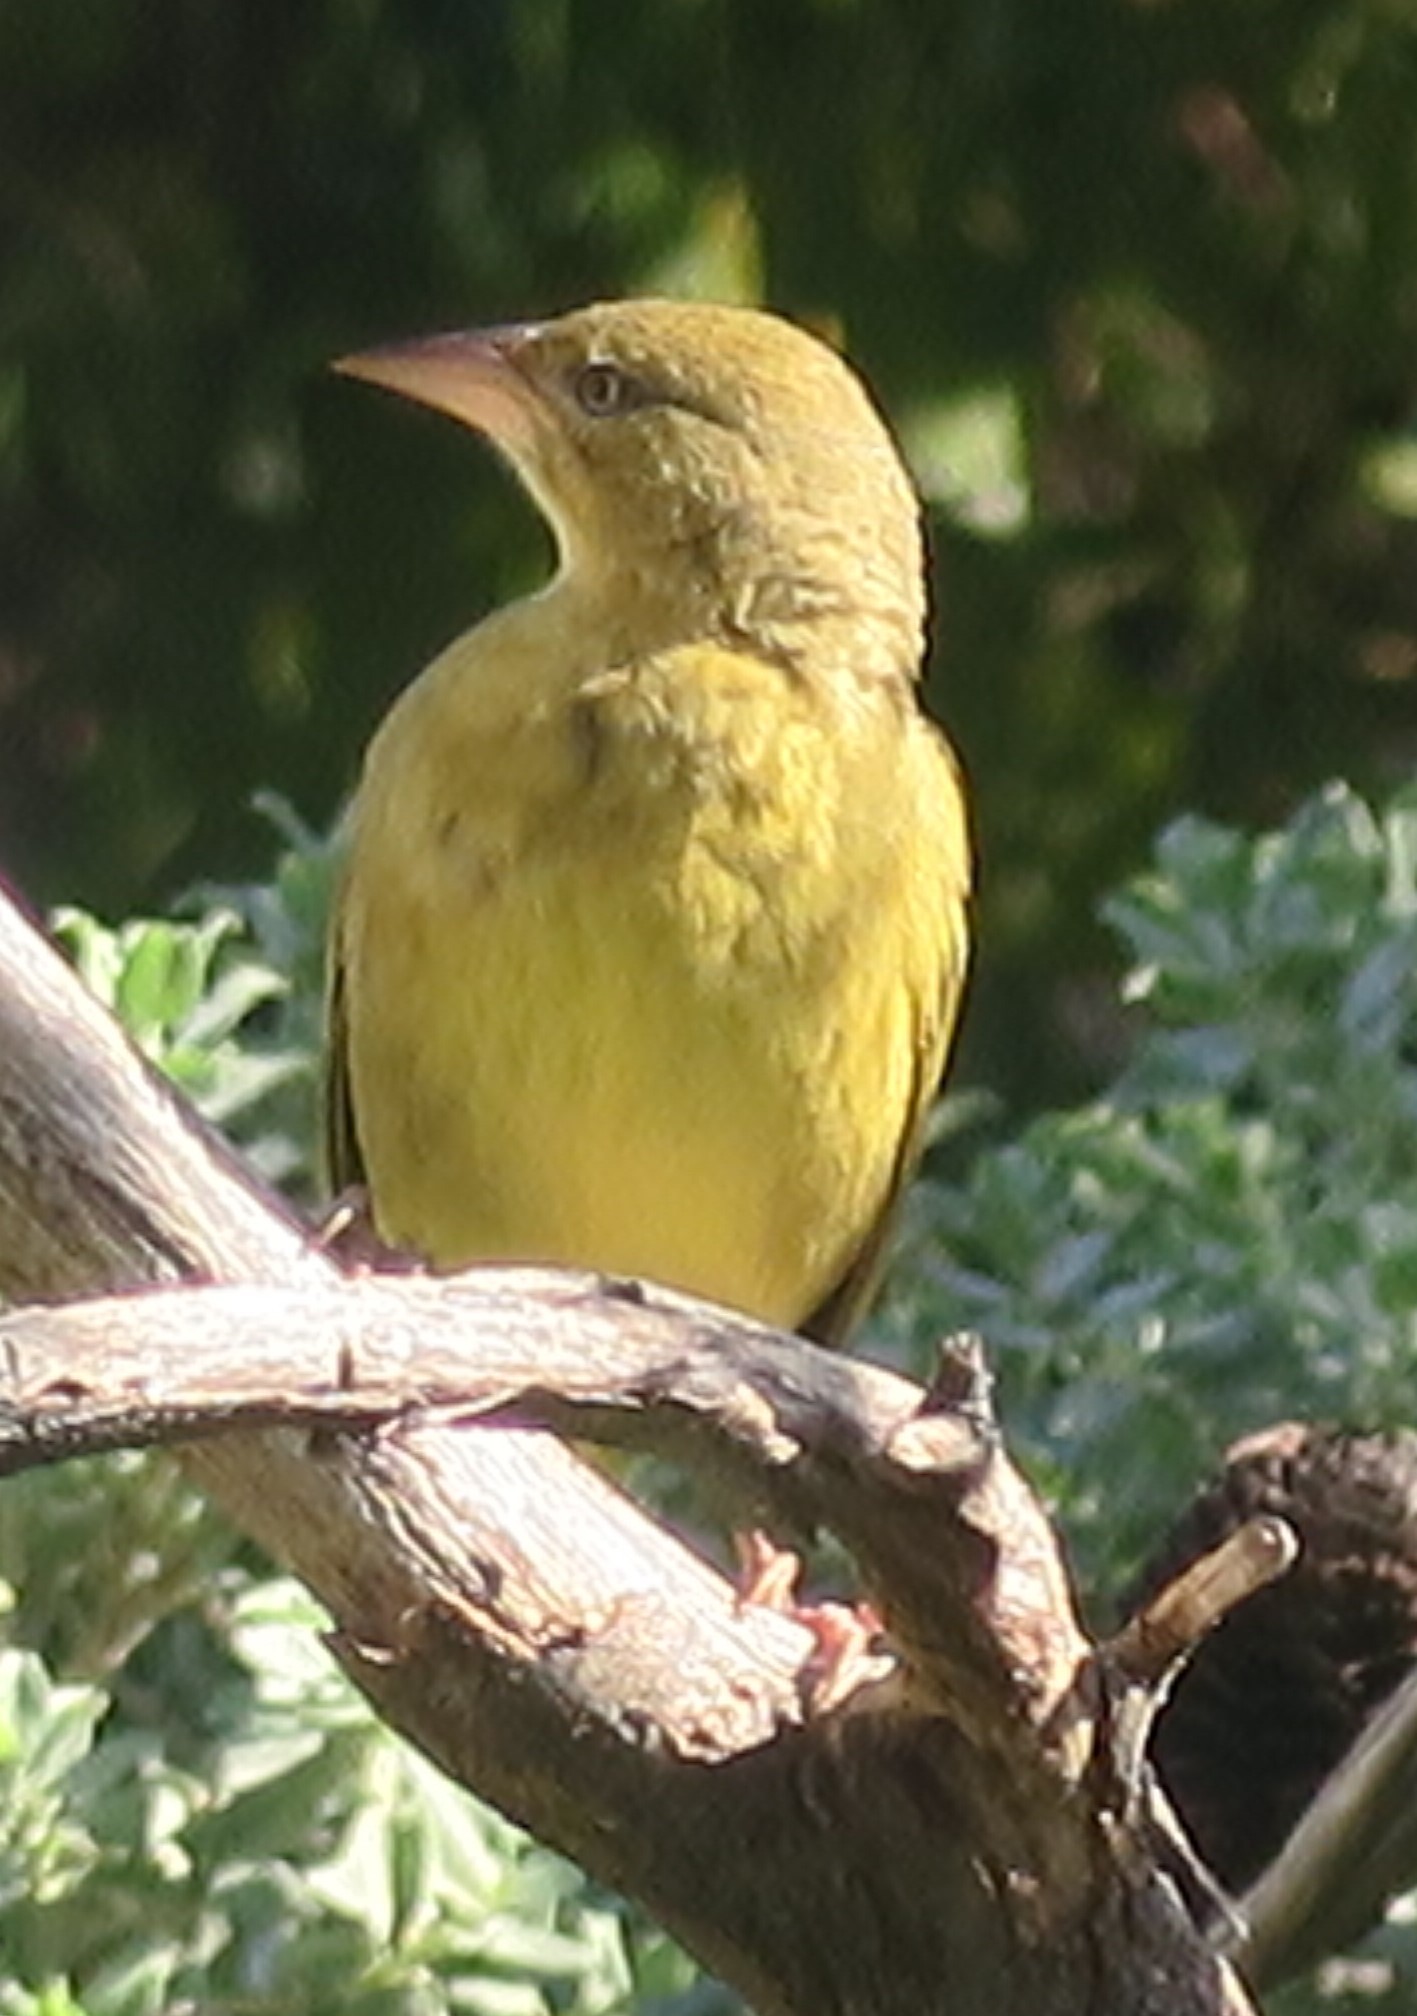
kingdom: Animalia
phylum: Chordata
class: Aves
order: Passeriformes
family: Ploceidae
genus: Ploceus
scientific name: Ploceus capensis
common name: Cape weaver
